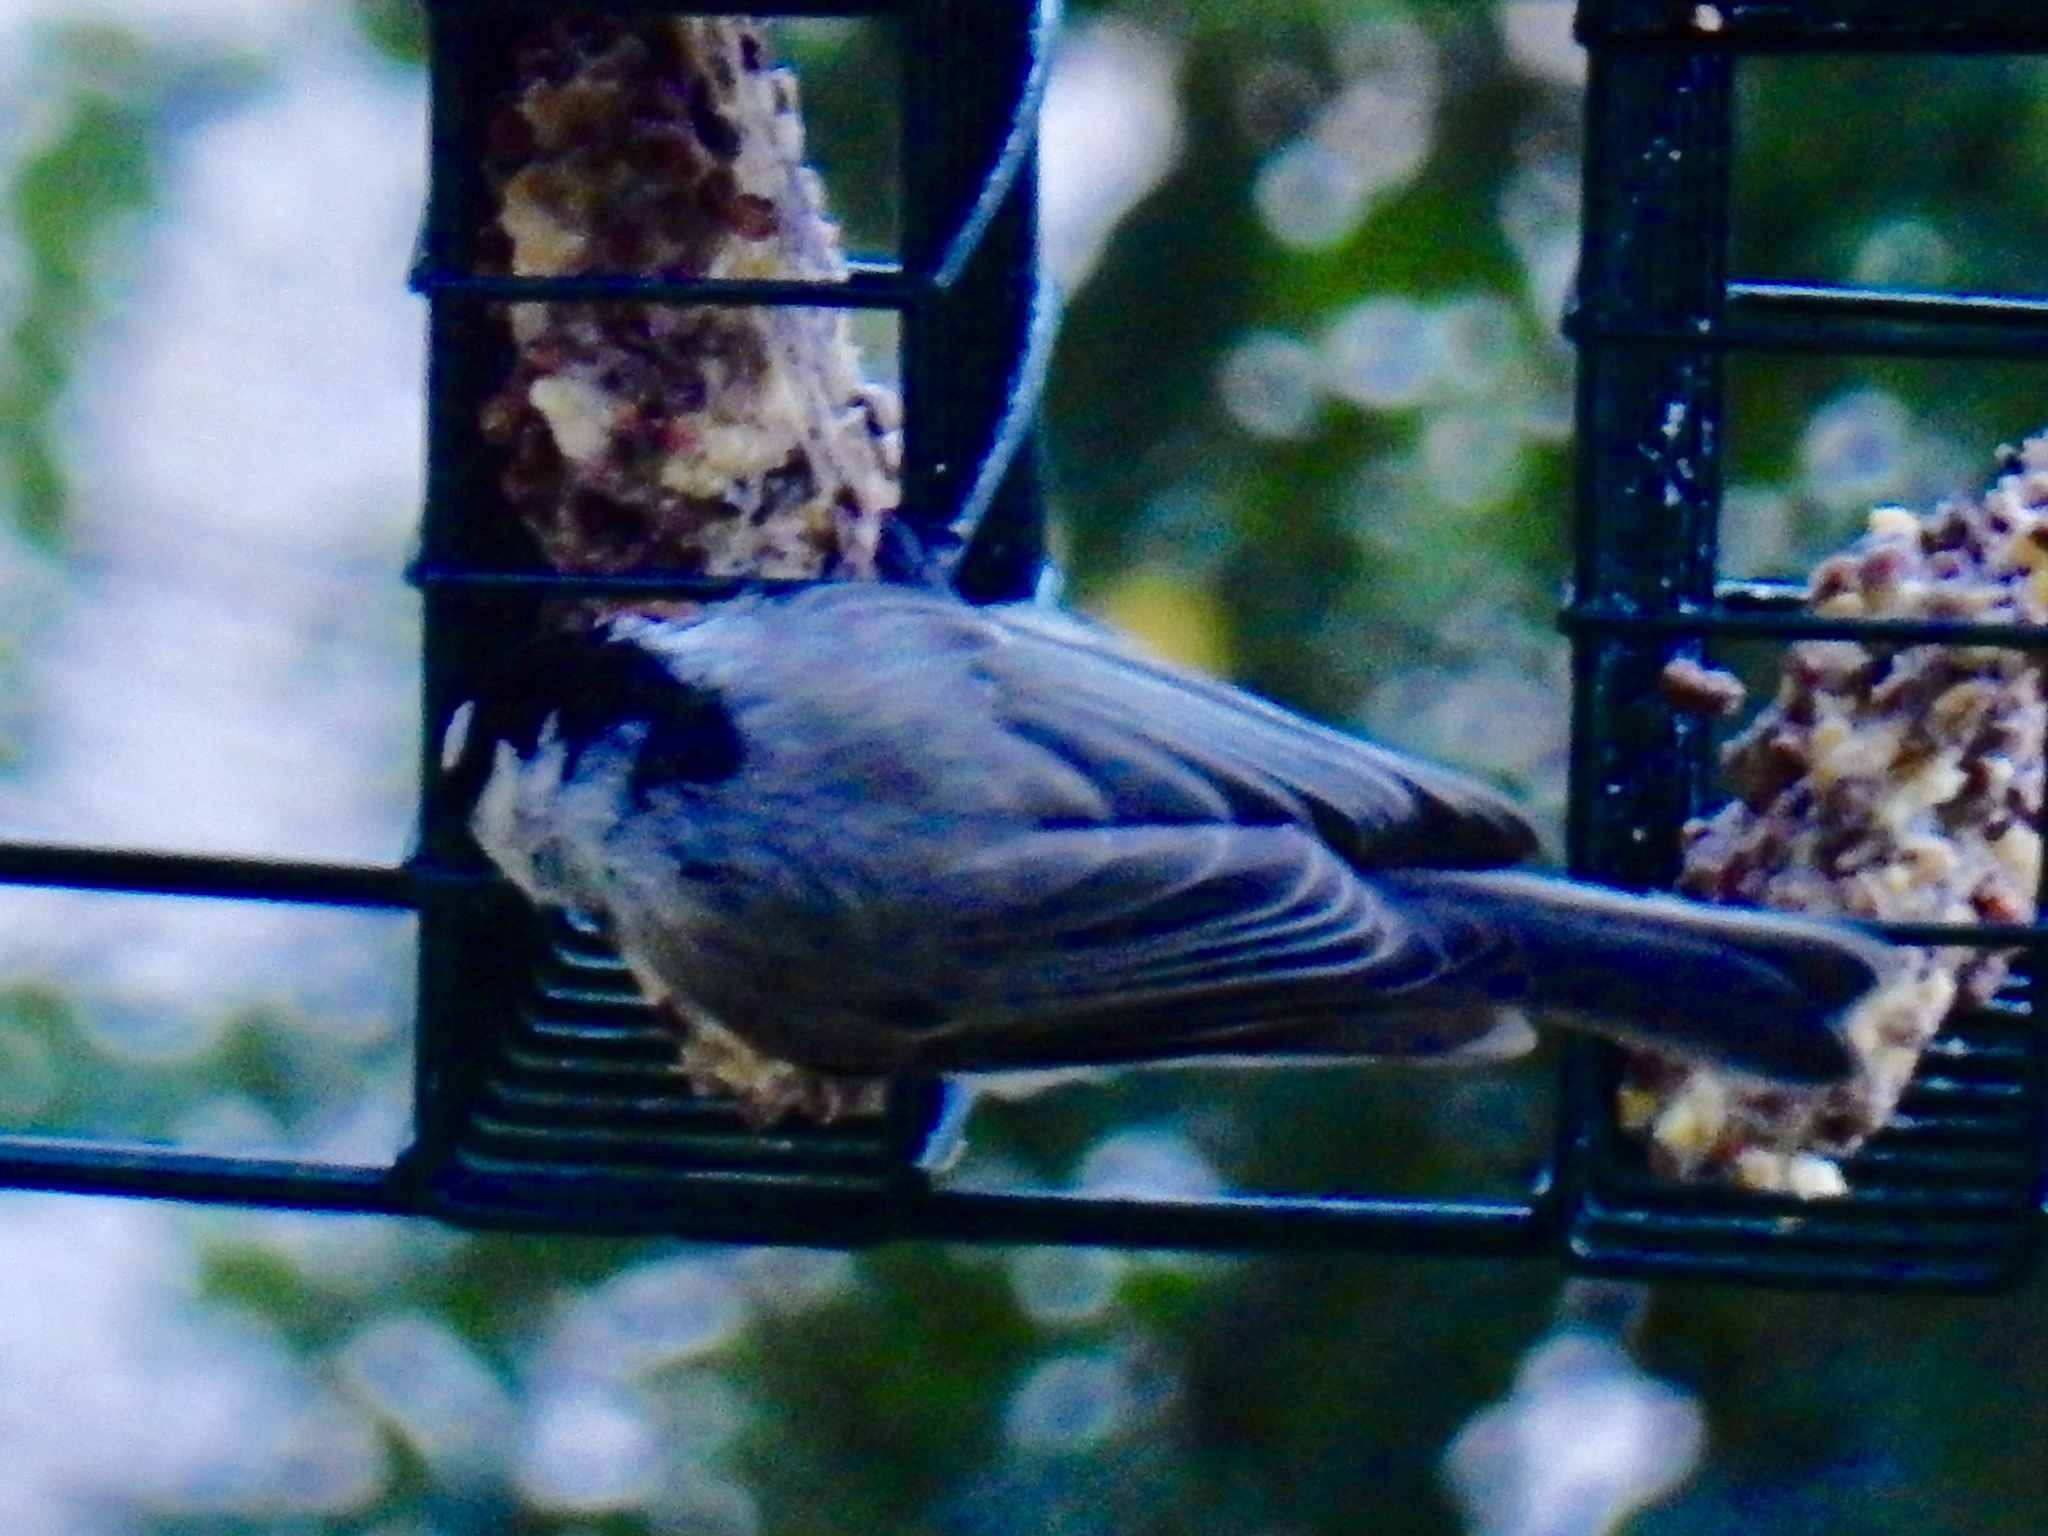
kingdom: Animalia
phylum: Chordata
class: Aves
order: Passeriformes
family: Paridae
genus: Poecile
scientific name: Poecile gambeli
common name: Mountain chickadee
